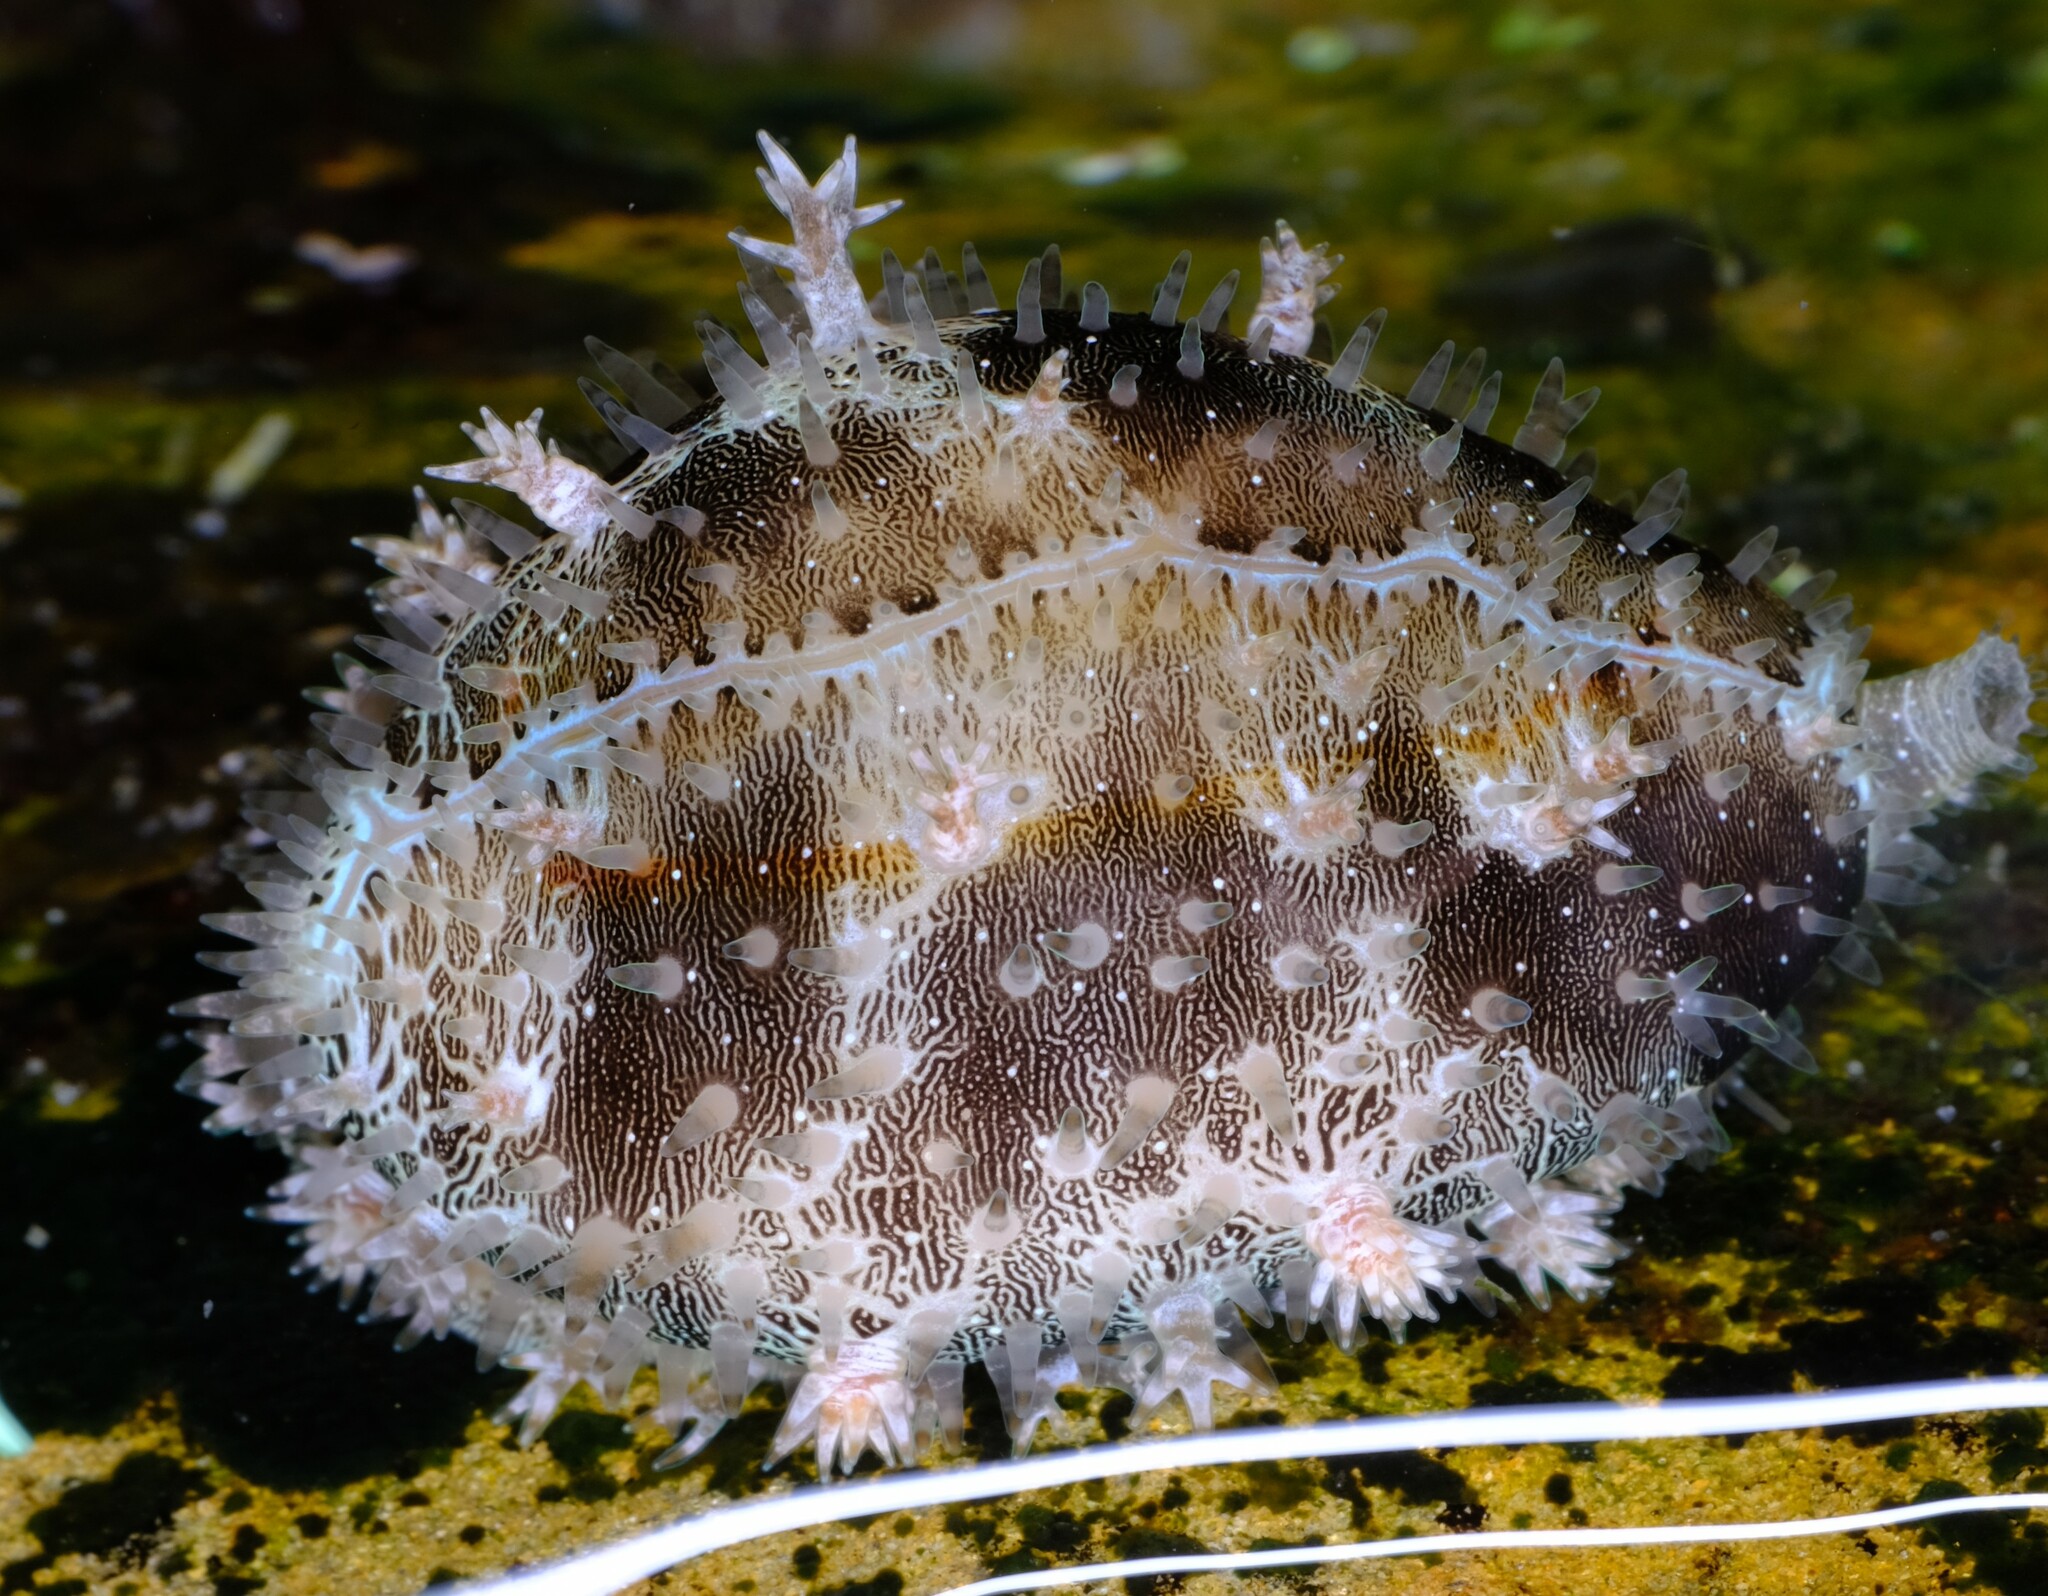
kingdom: Animalia
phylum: Mollusca
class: Gastropoda
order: Littorinimorpha
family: Cypraeidae
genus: Monetaria
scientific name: Monetaria annulus
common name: Ring cowrie
